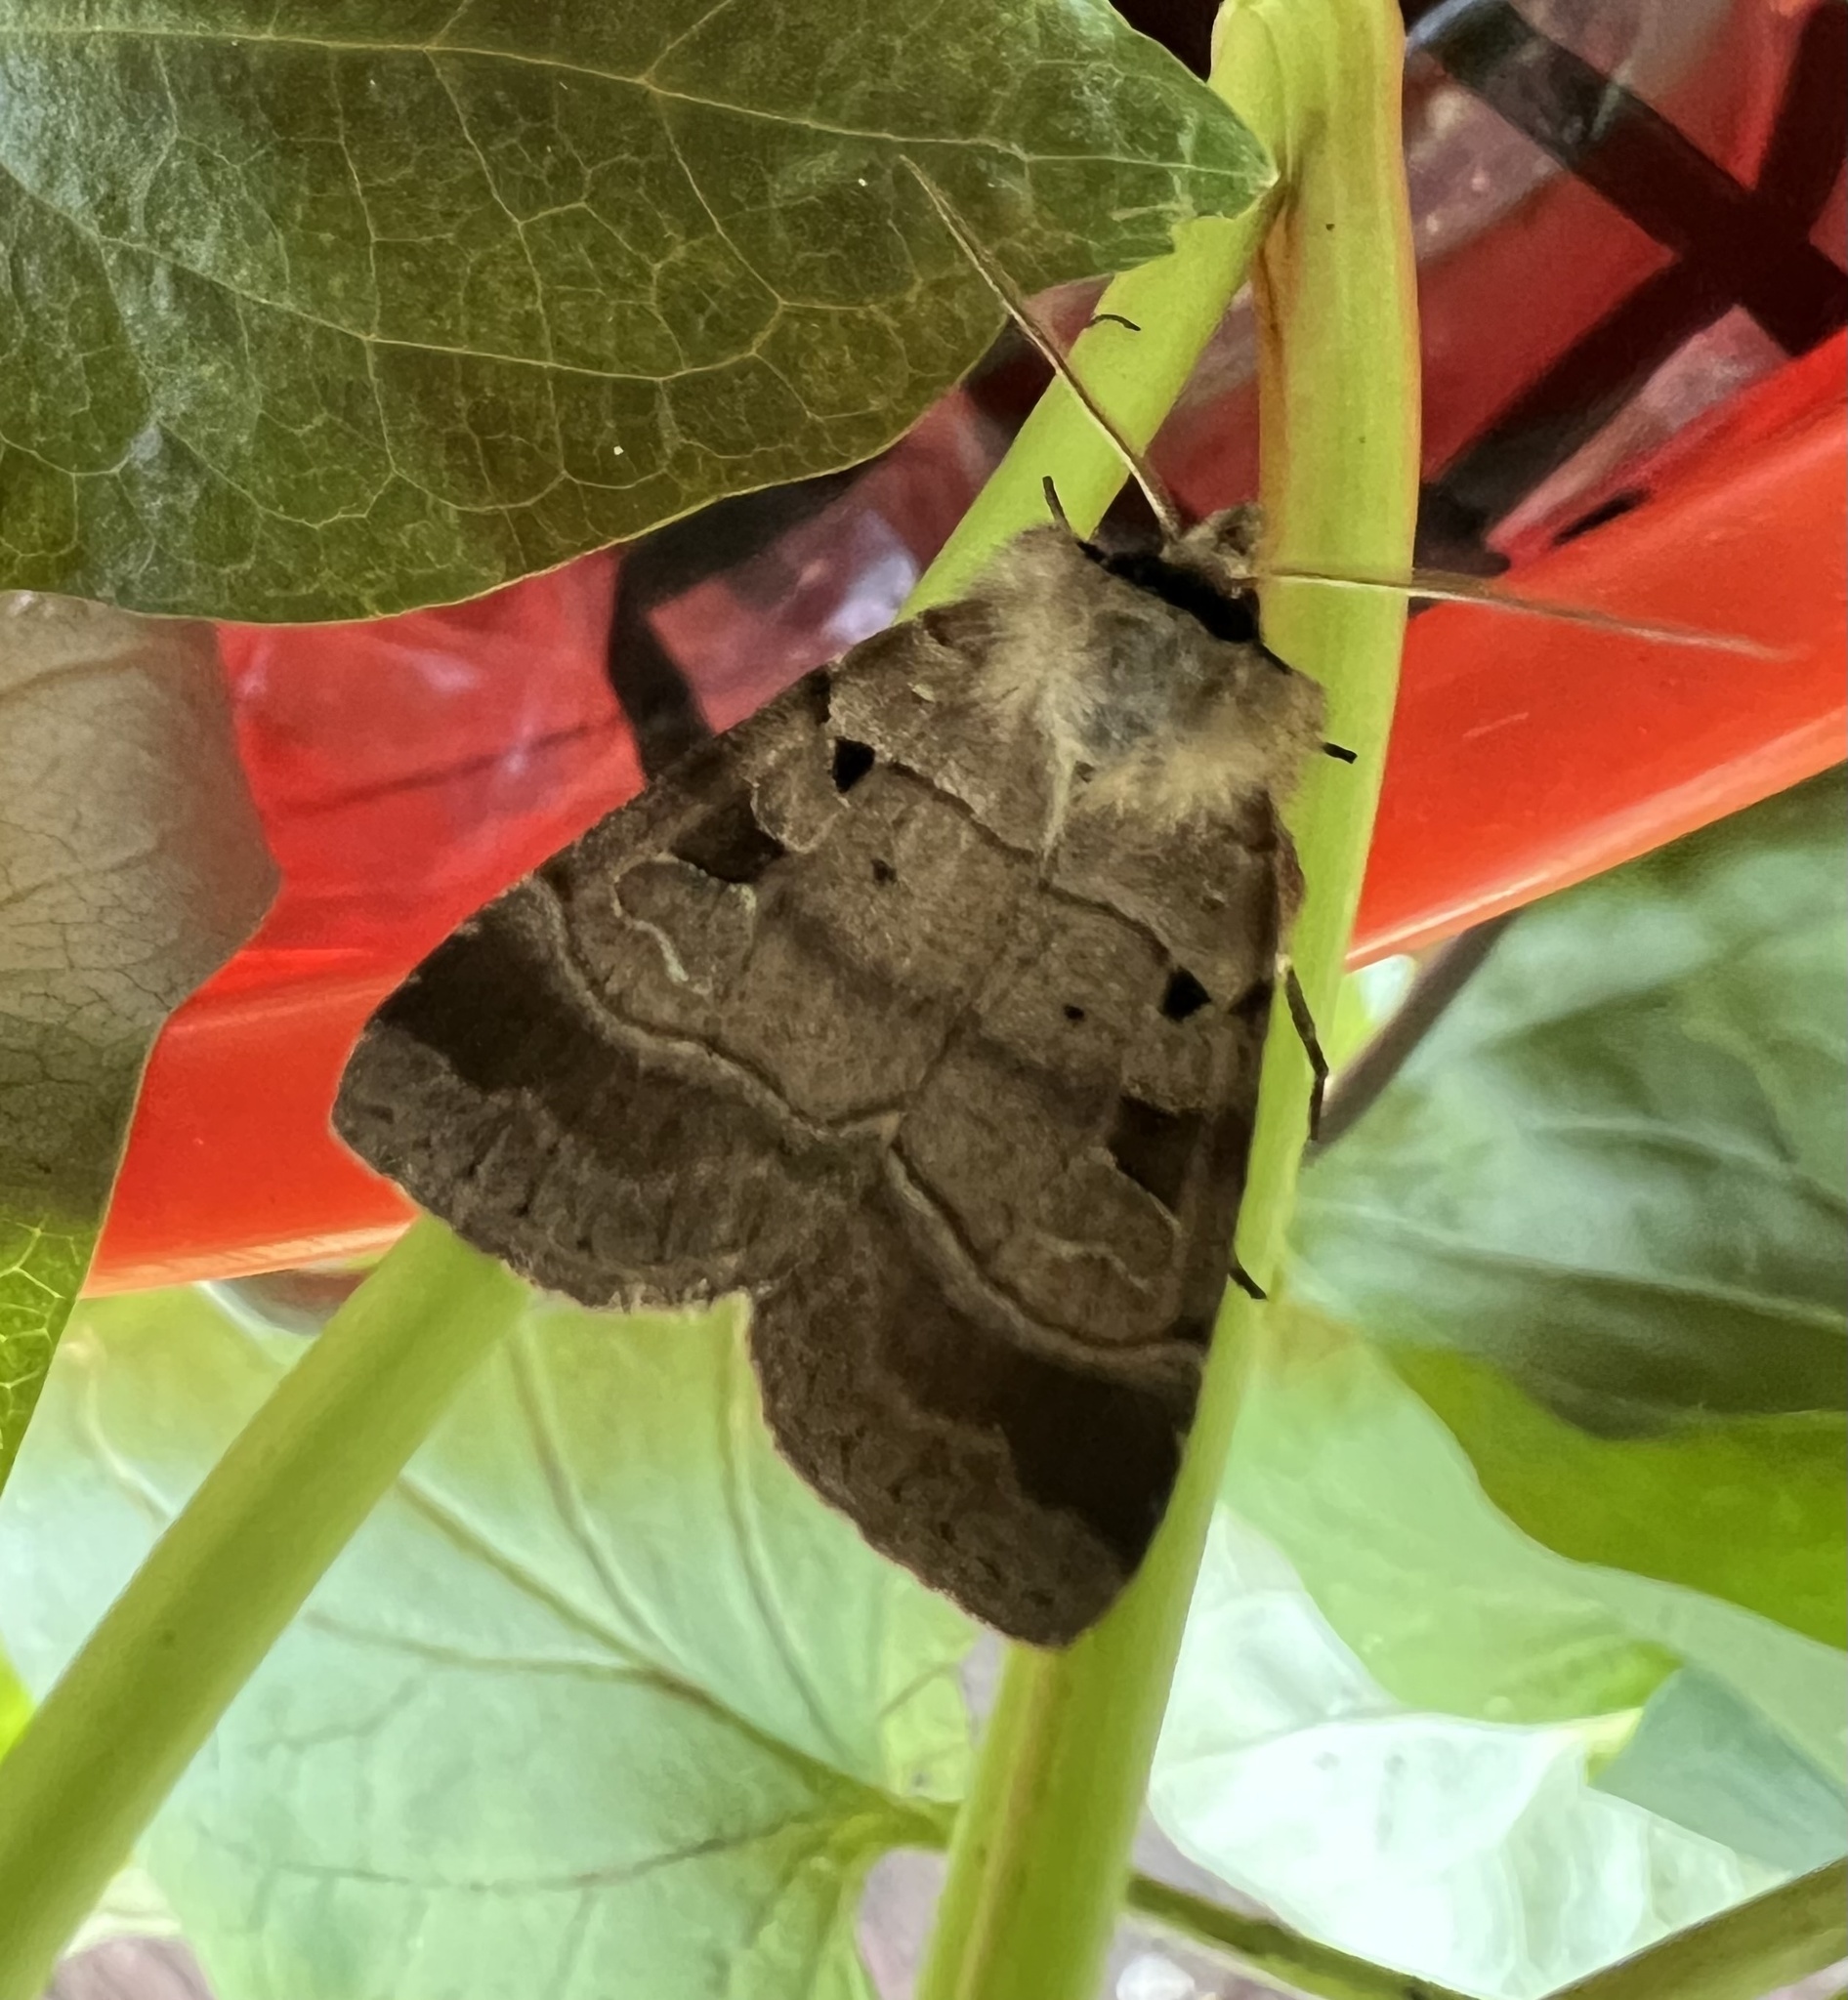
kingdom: Animalia
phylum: Arthropoda
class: Insecta
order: Lepidoptera
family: Noctuidae
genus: Agnorisma
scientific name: Agnorisma badinodis
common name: Pale-banded dart
